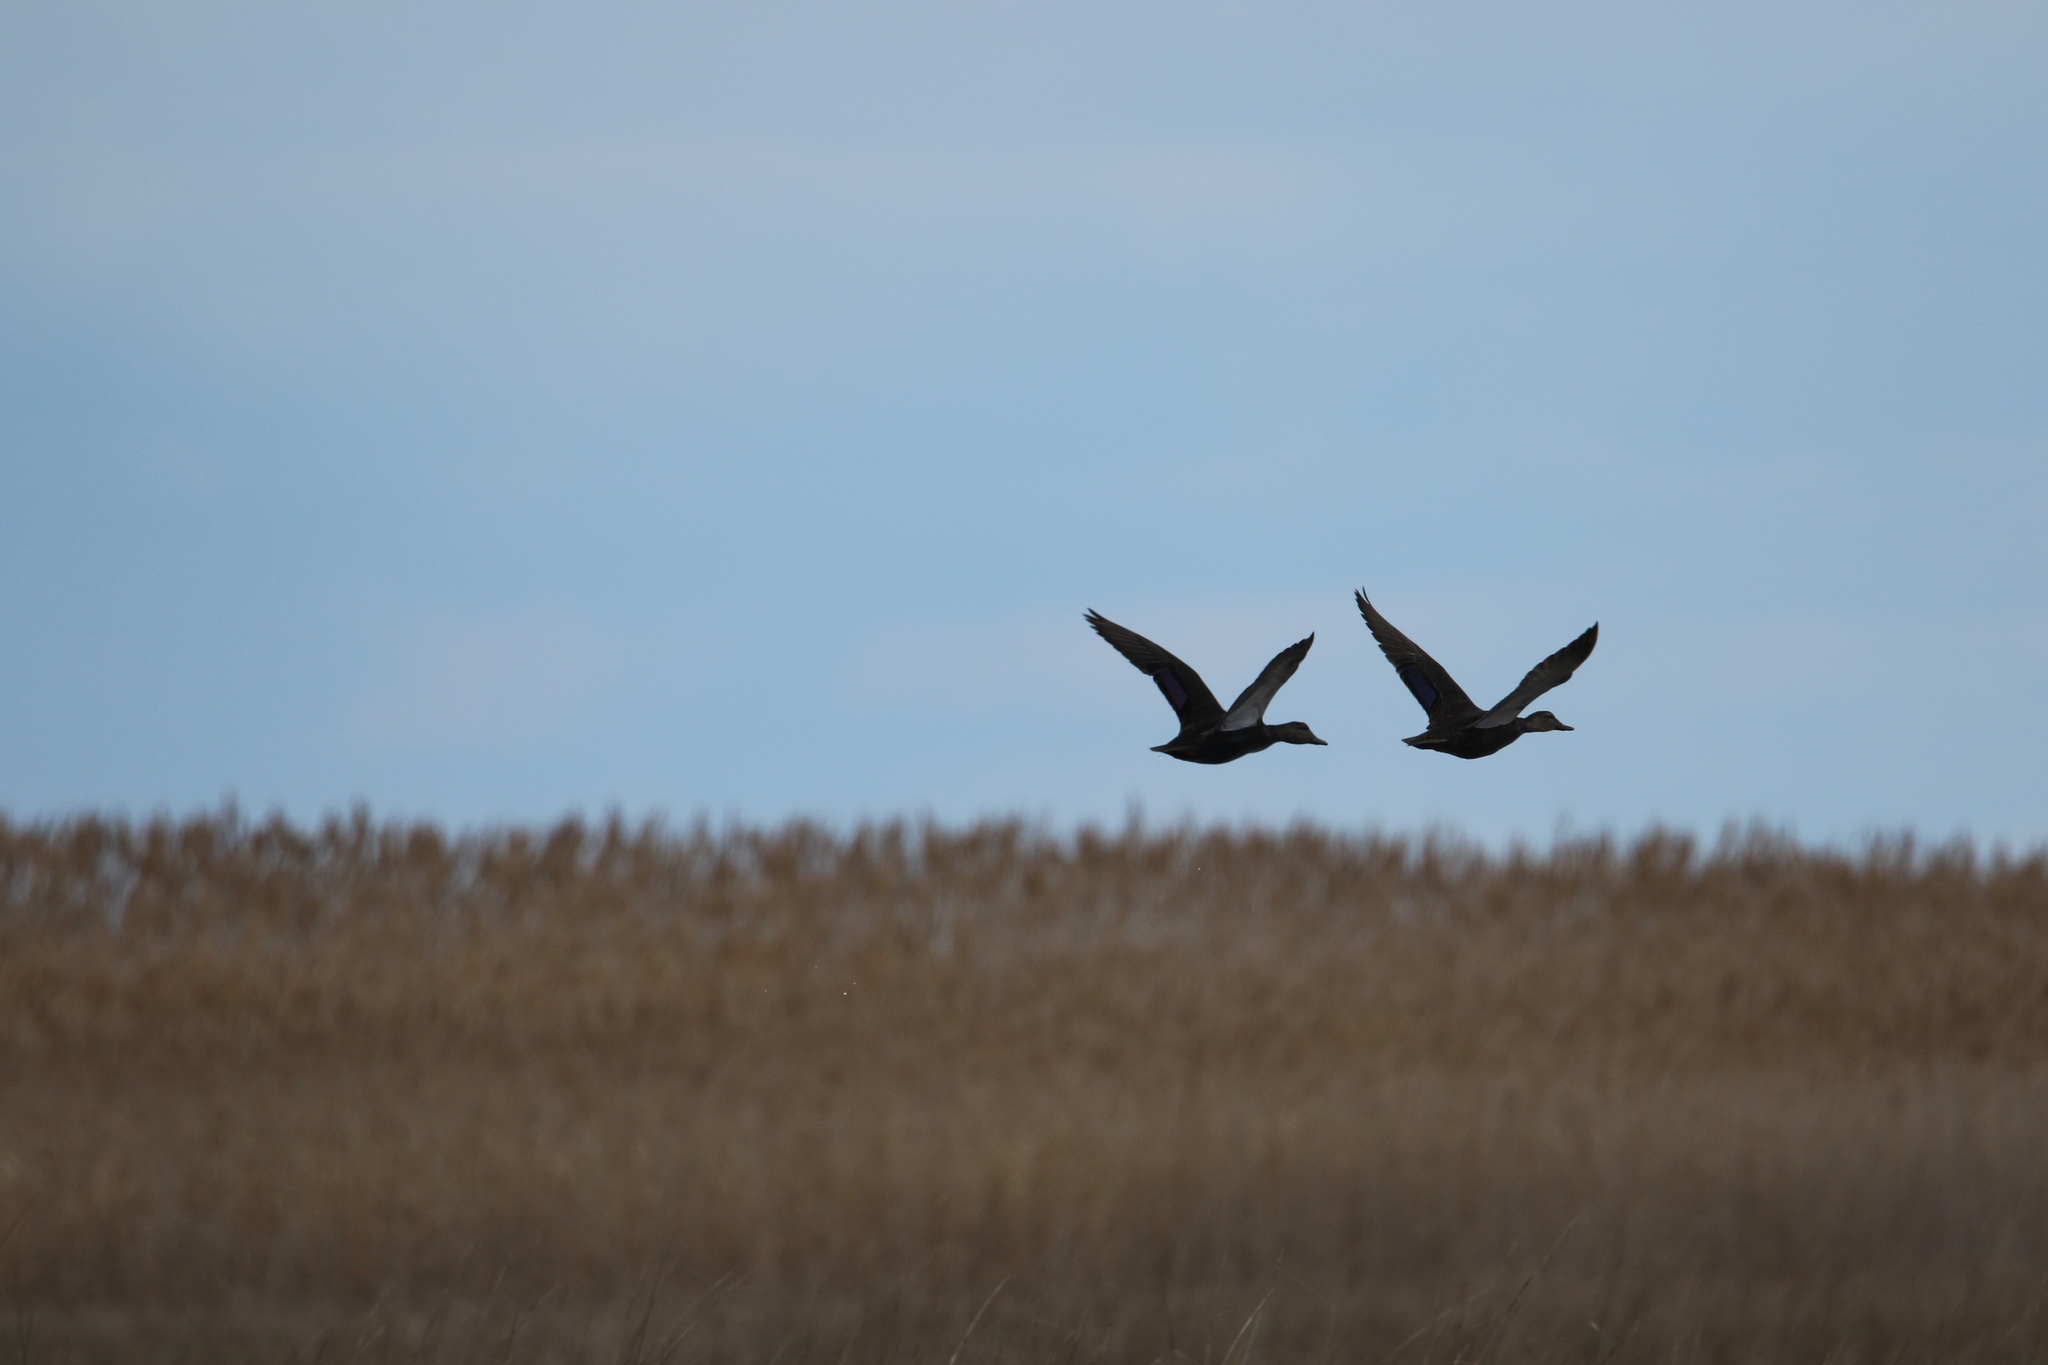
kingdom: Animalia
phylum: Chordata
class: Aves
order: Anseriformes
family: Anatidae
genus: Anas
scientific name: Anas rubripes
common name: American black duck
